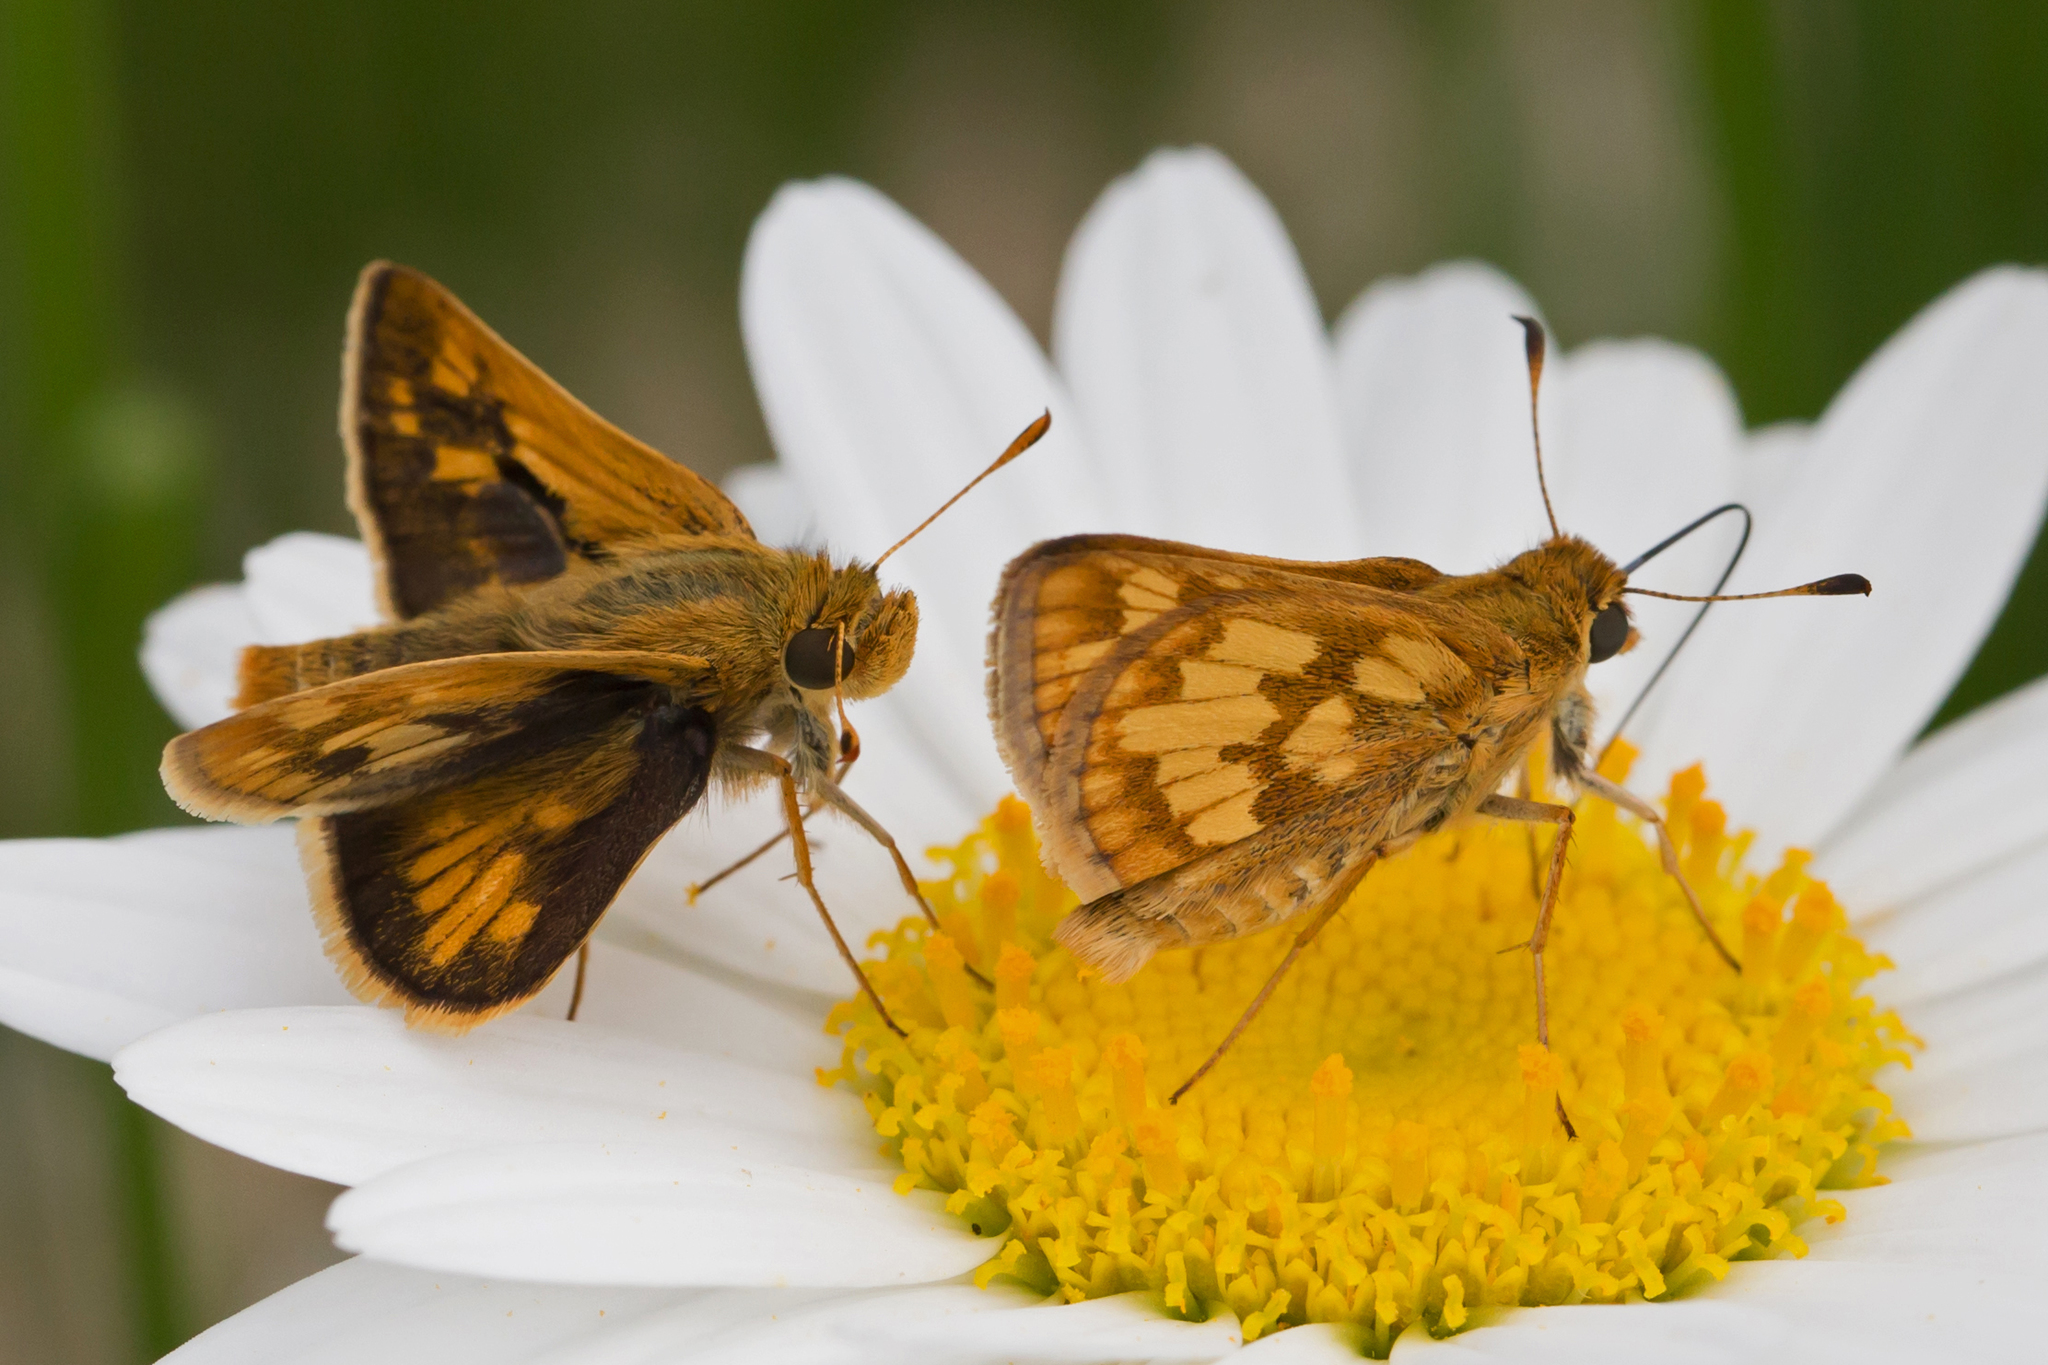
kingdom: Animalia
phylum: Arthropoda
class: Insecta
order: Lepidoptera
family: Hesperiidae
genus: Polites
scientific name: Polites coras
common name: Peck's skipper
